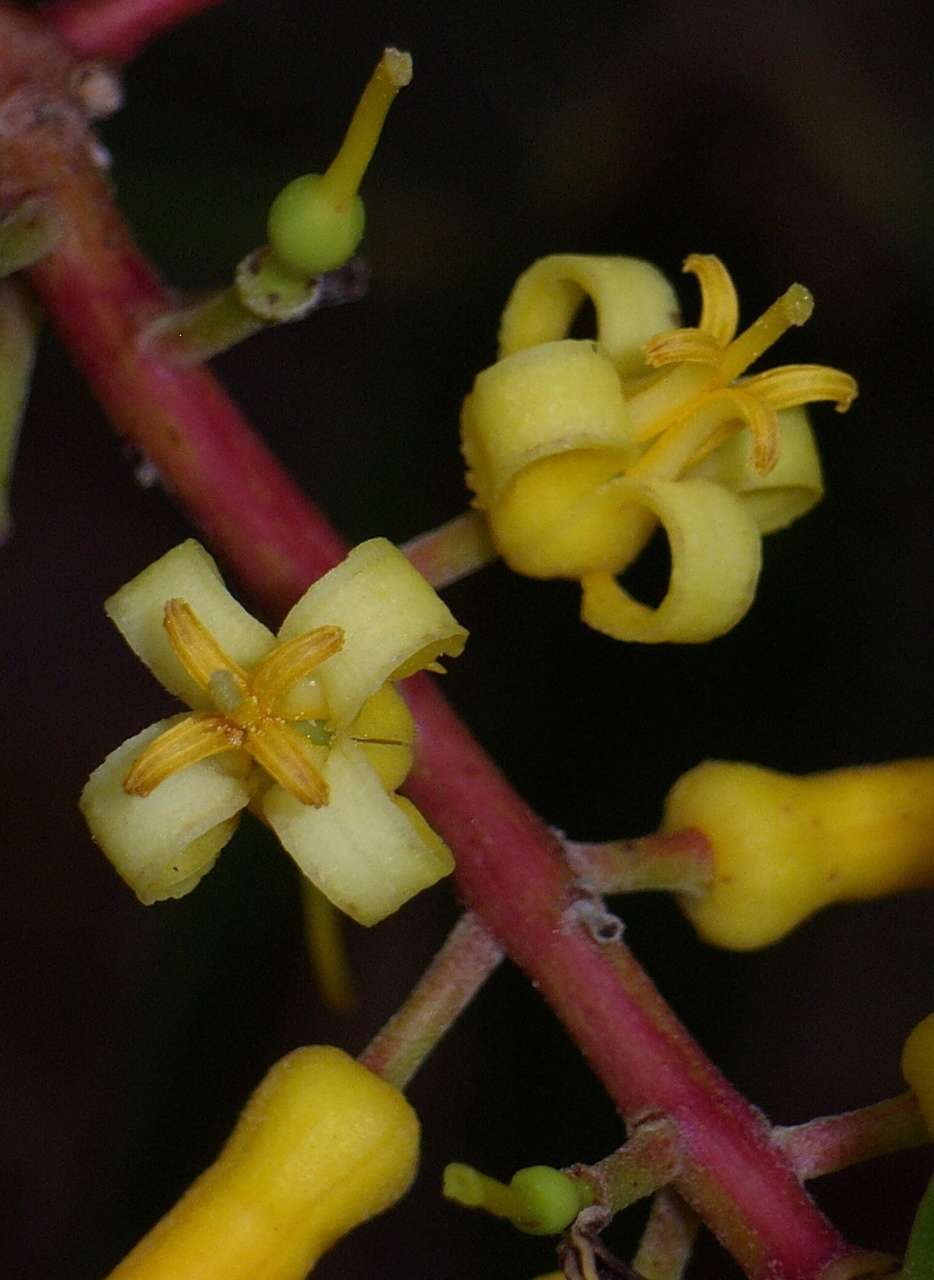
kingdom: Plantae
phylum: Tracheophyta
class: Magnoliopsida
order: Proteales
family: Proteaceae
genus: Persoonia
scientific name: Persoonia levis
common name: Smooth geebung
